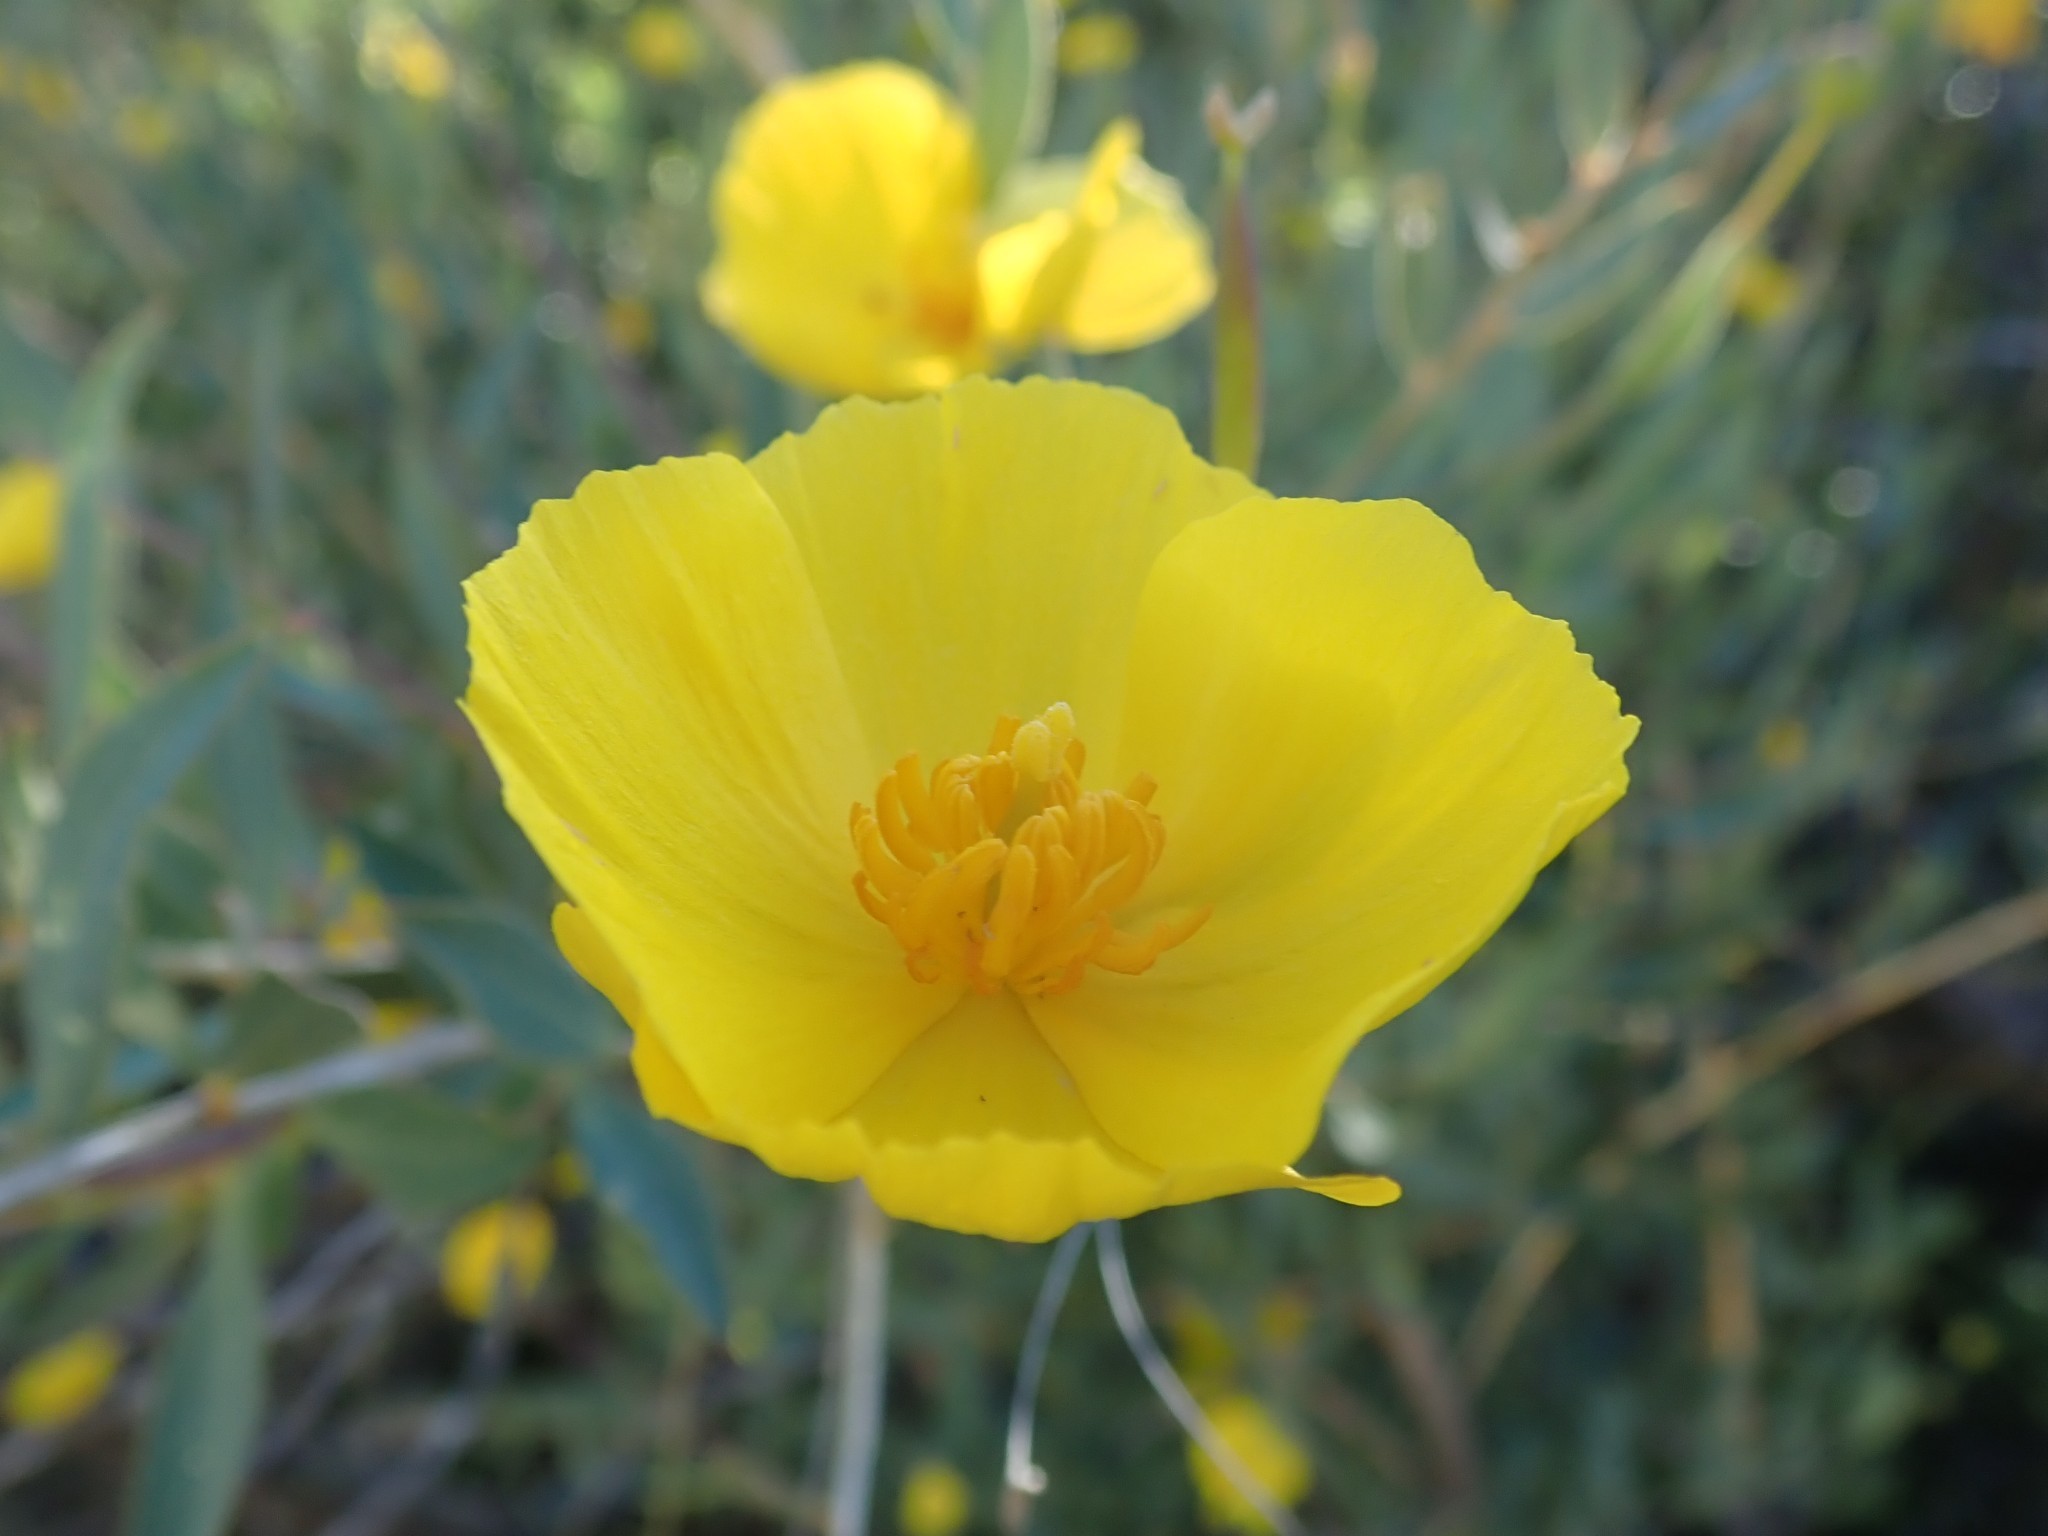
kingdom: Plantae
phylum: Tracheophyta
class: Magnoliopsida
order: Ranunculales
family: Papaveraceae
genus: Dendromecon
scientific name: Dendromecon rigida
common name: Tree poppy
